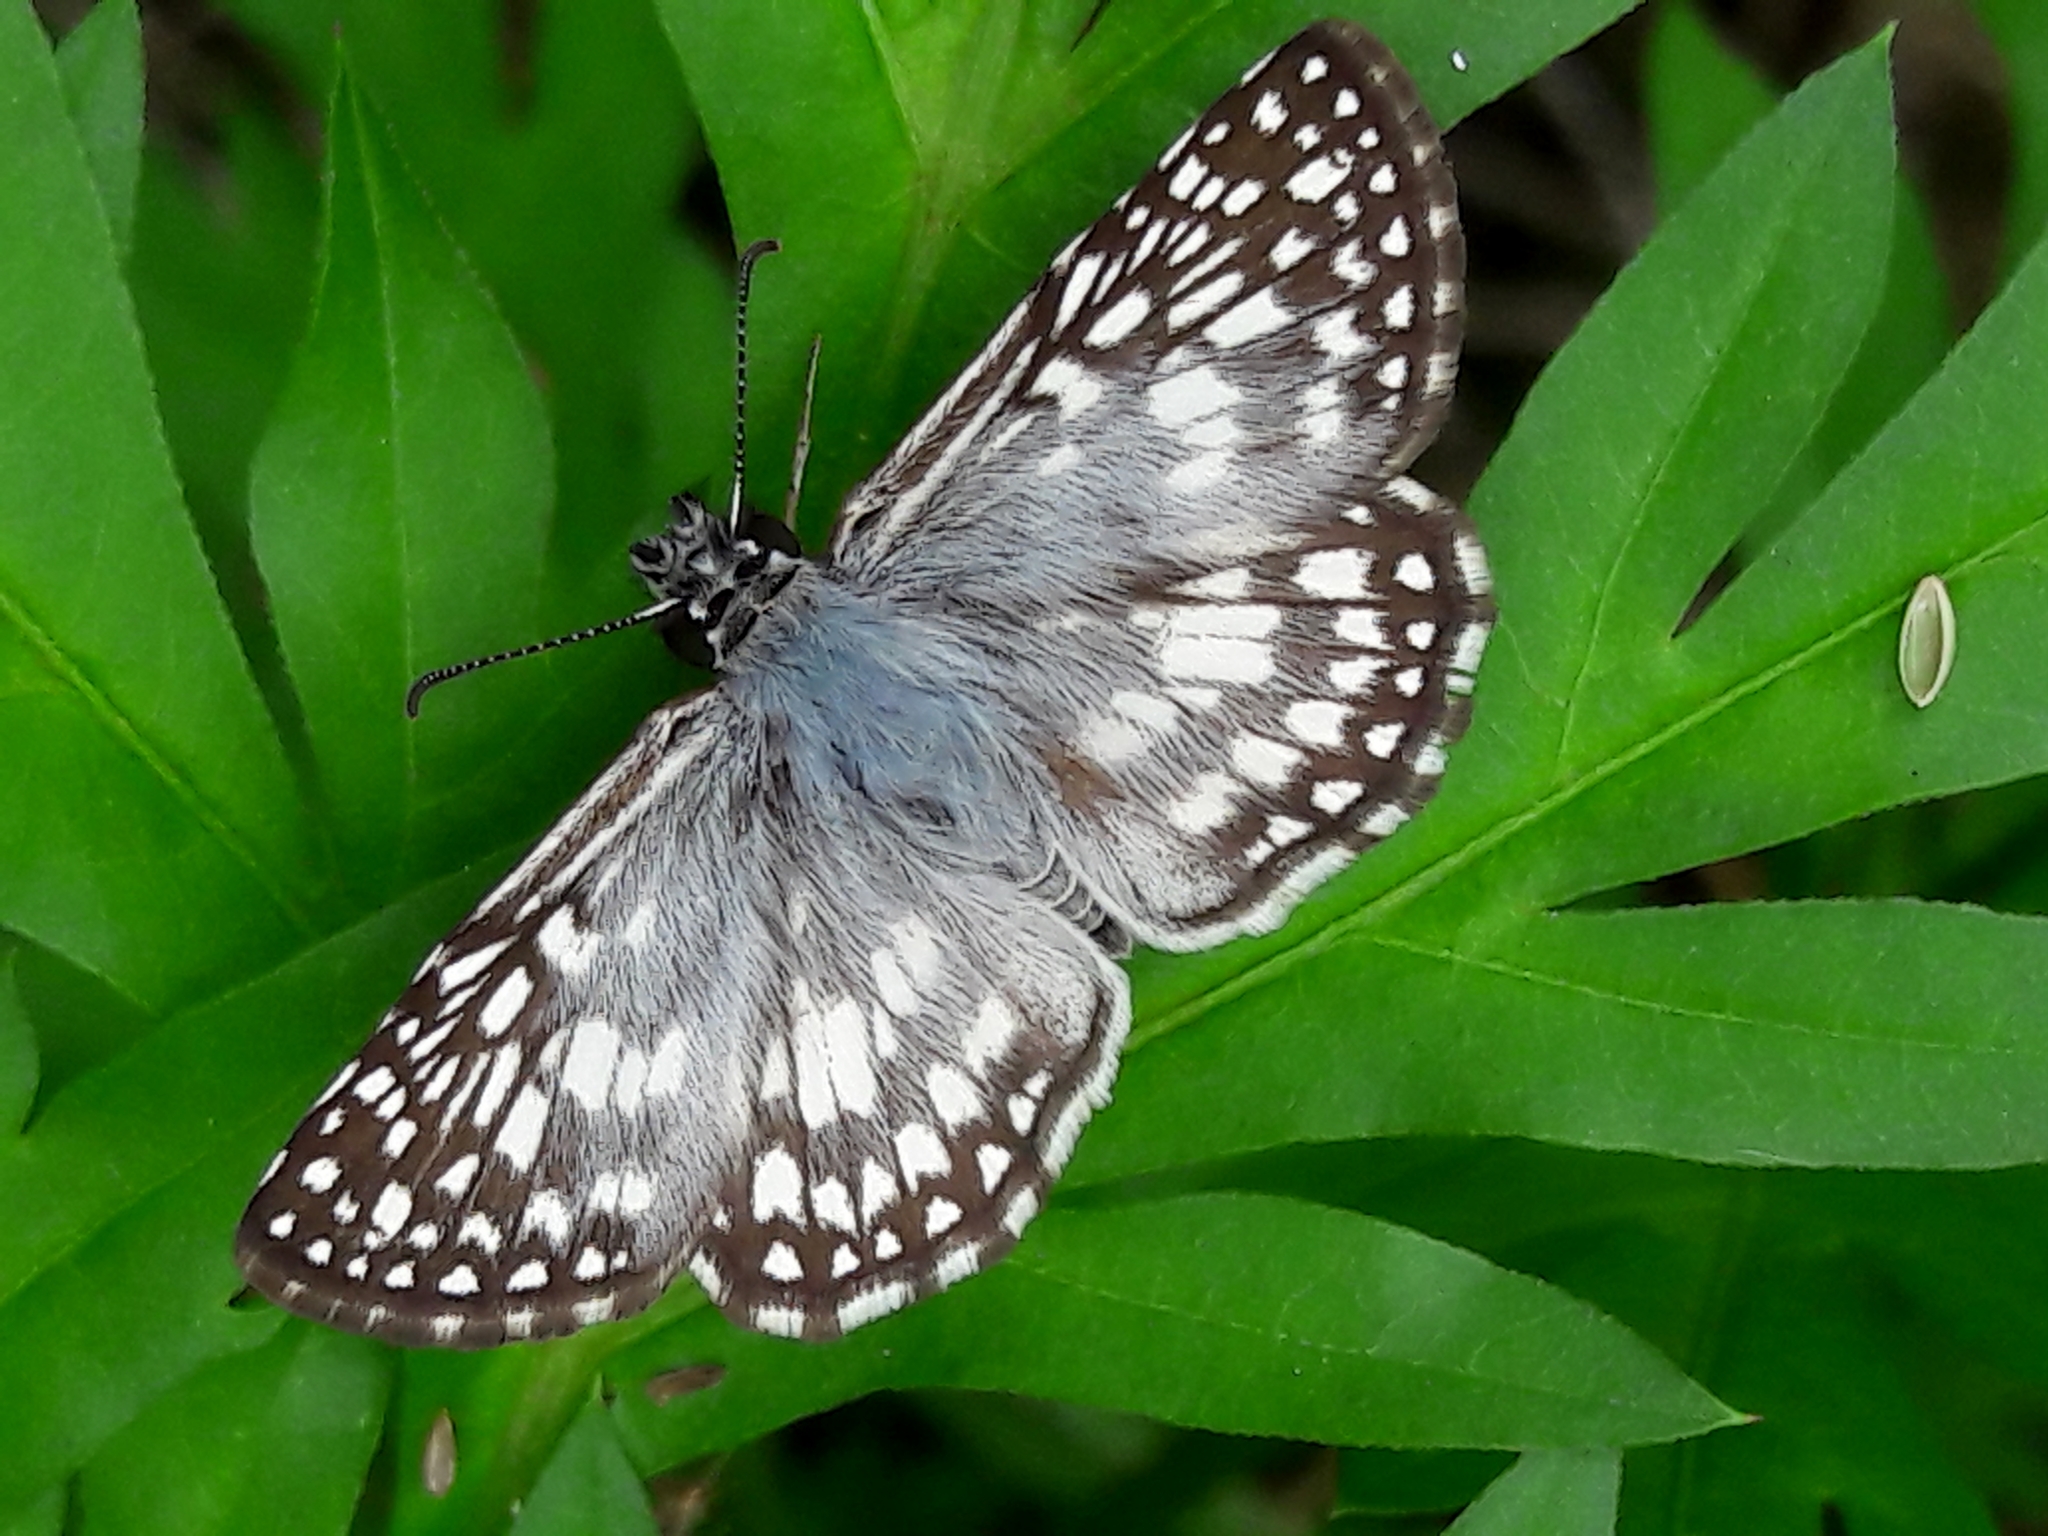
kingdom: Animalia
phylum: Arthropoda
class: Insecta
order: Lepidoptera
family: Hesperiidae
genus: Pyrgus
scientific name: Pyrgus oileus
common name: Tropical checkered-skipper
